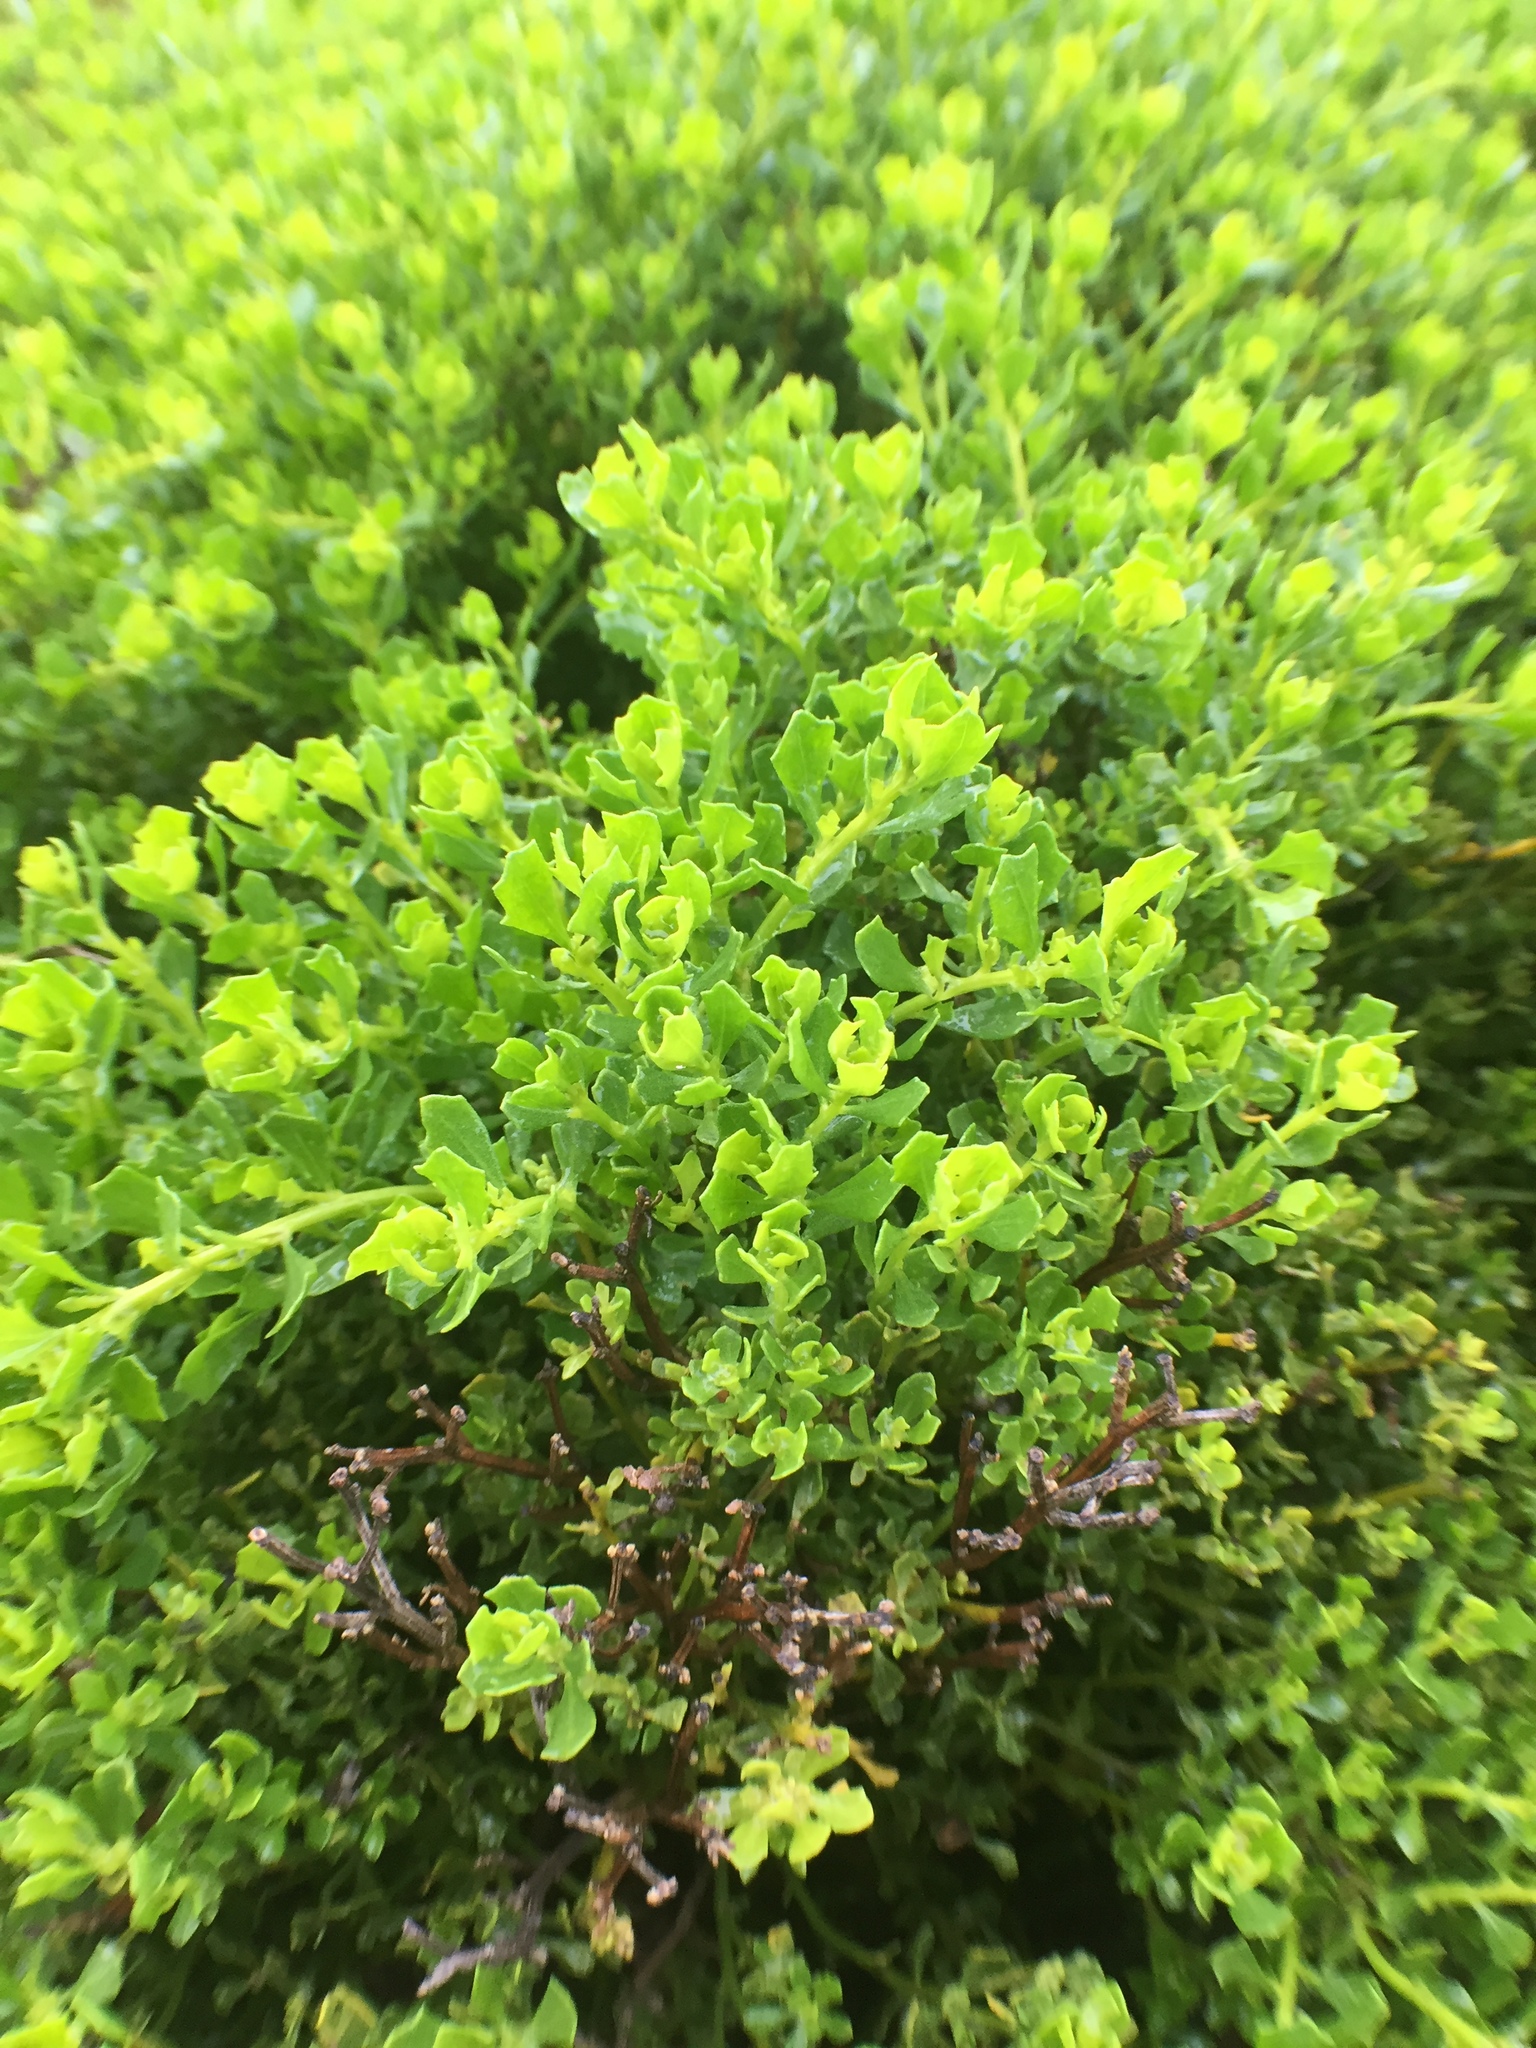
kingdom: Plantae
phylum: Tracheophyta
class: Magnoliopsida
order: Asterales
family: Asteraceae
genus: Baccharis
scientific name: Baccharis pilularis
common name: Coyotebrush
